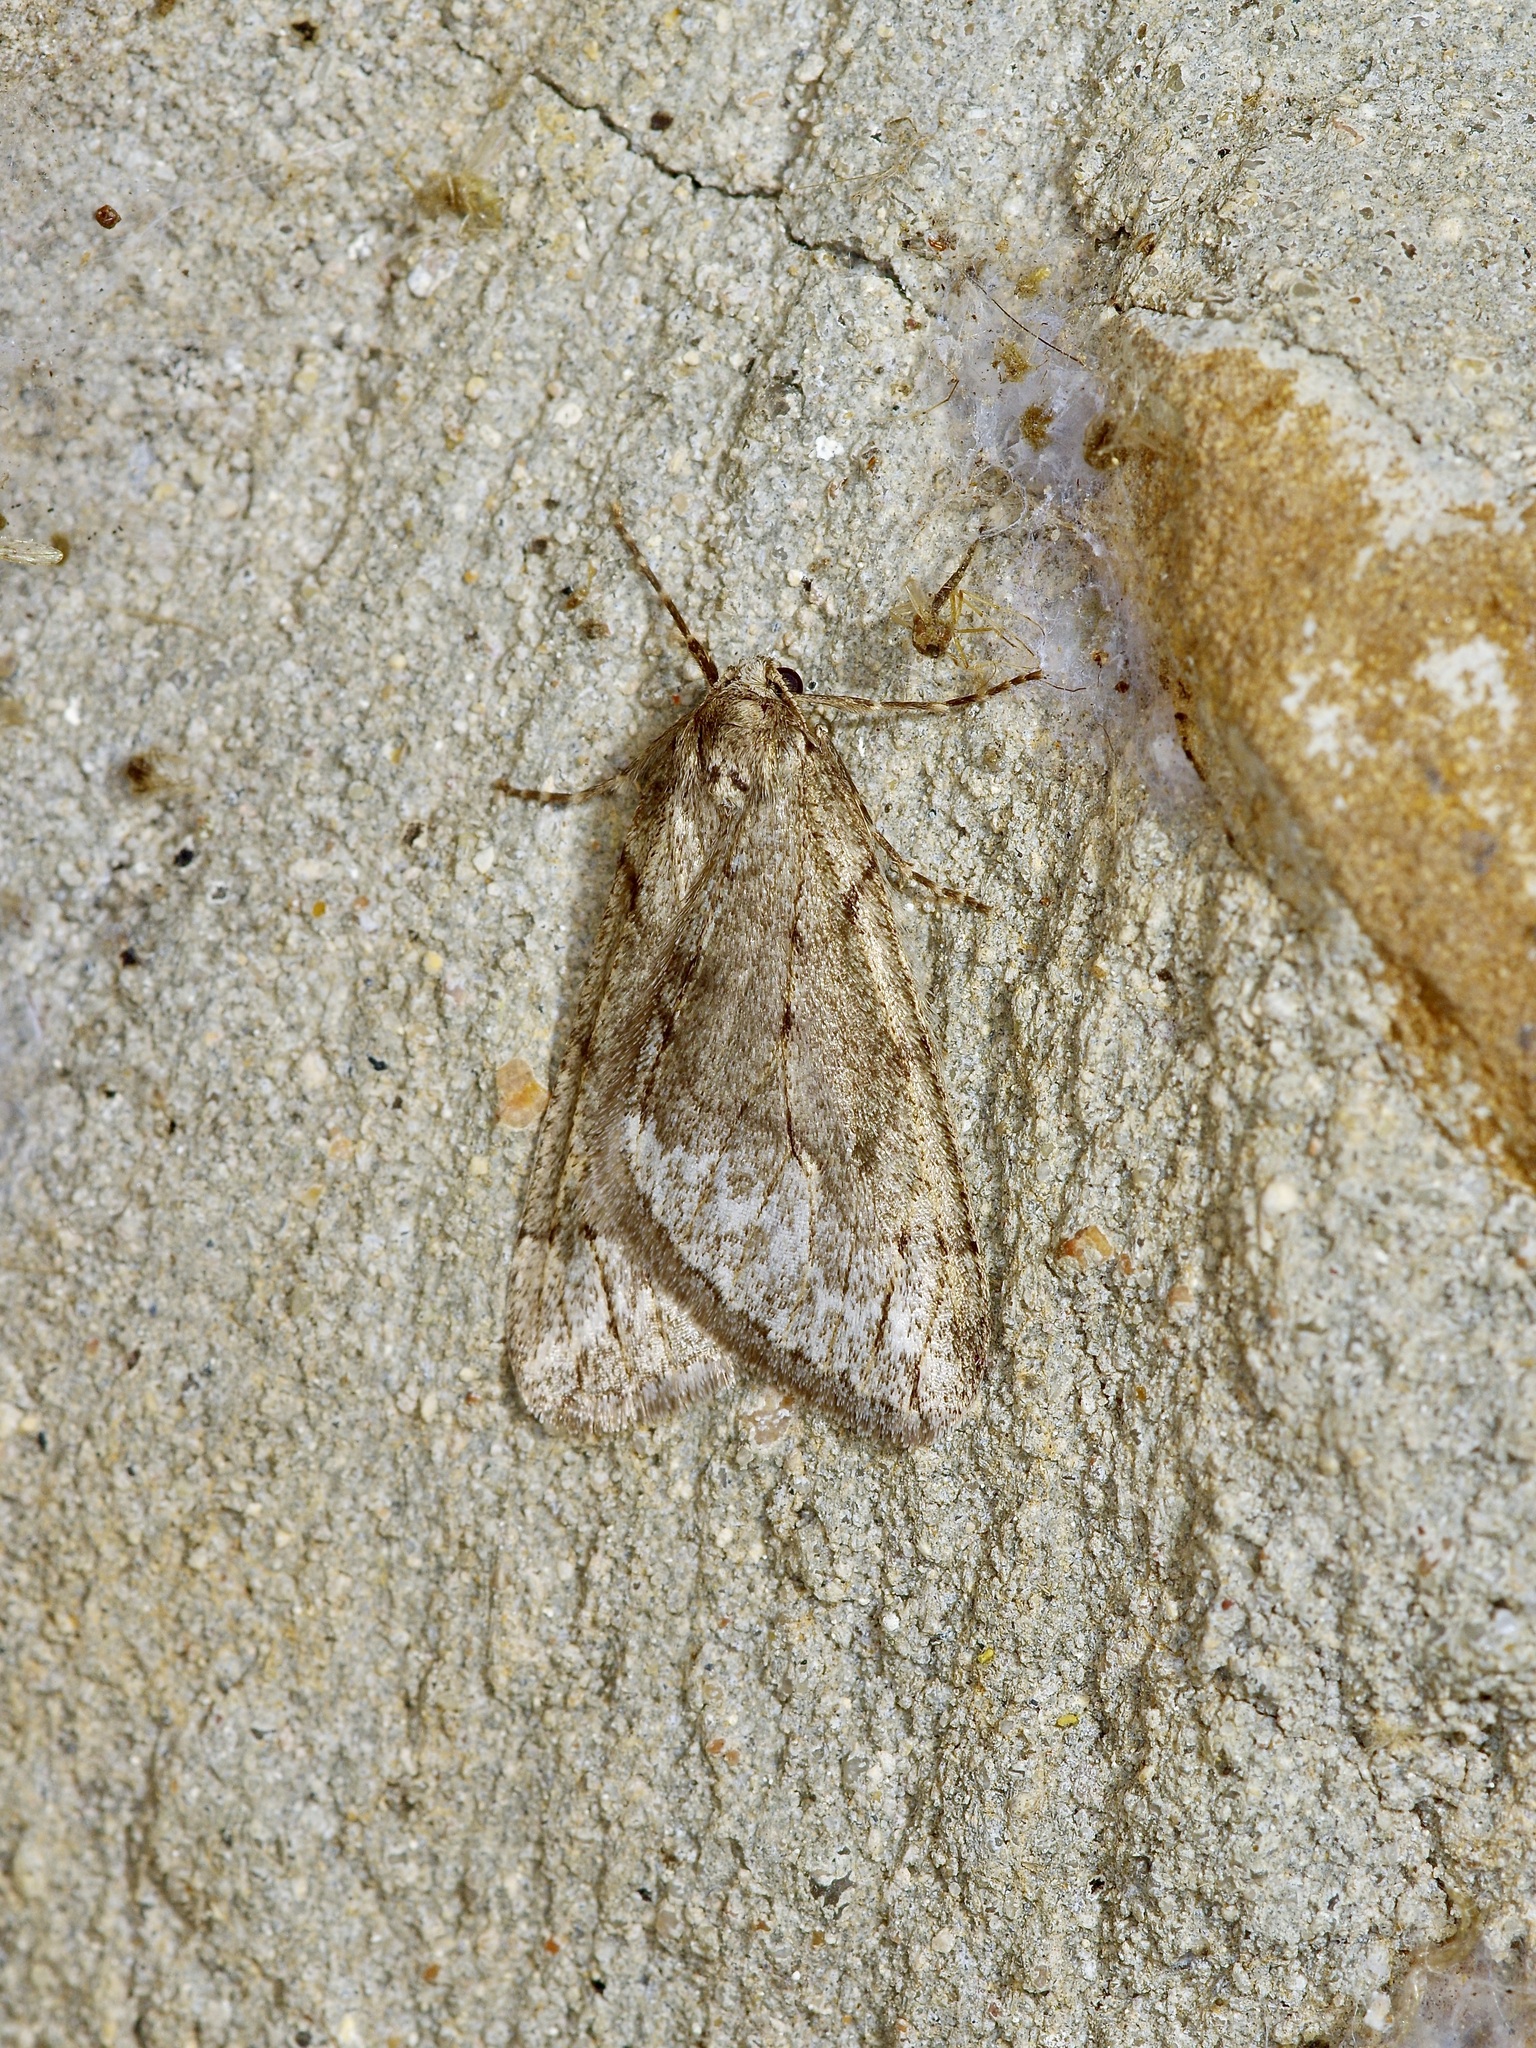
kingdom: Animalia
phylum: Arthropoda
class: Insecta
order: Lepidoptera
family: Geometridae
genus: Paleacrita
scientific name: Paleacrita vernata
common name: Spring cankerworm
